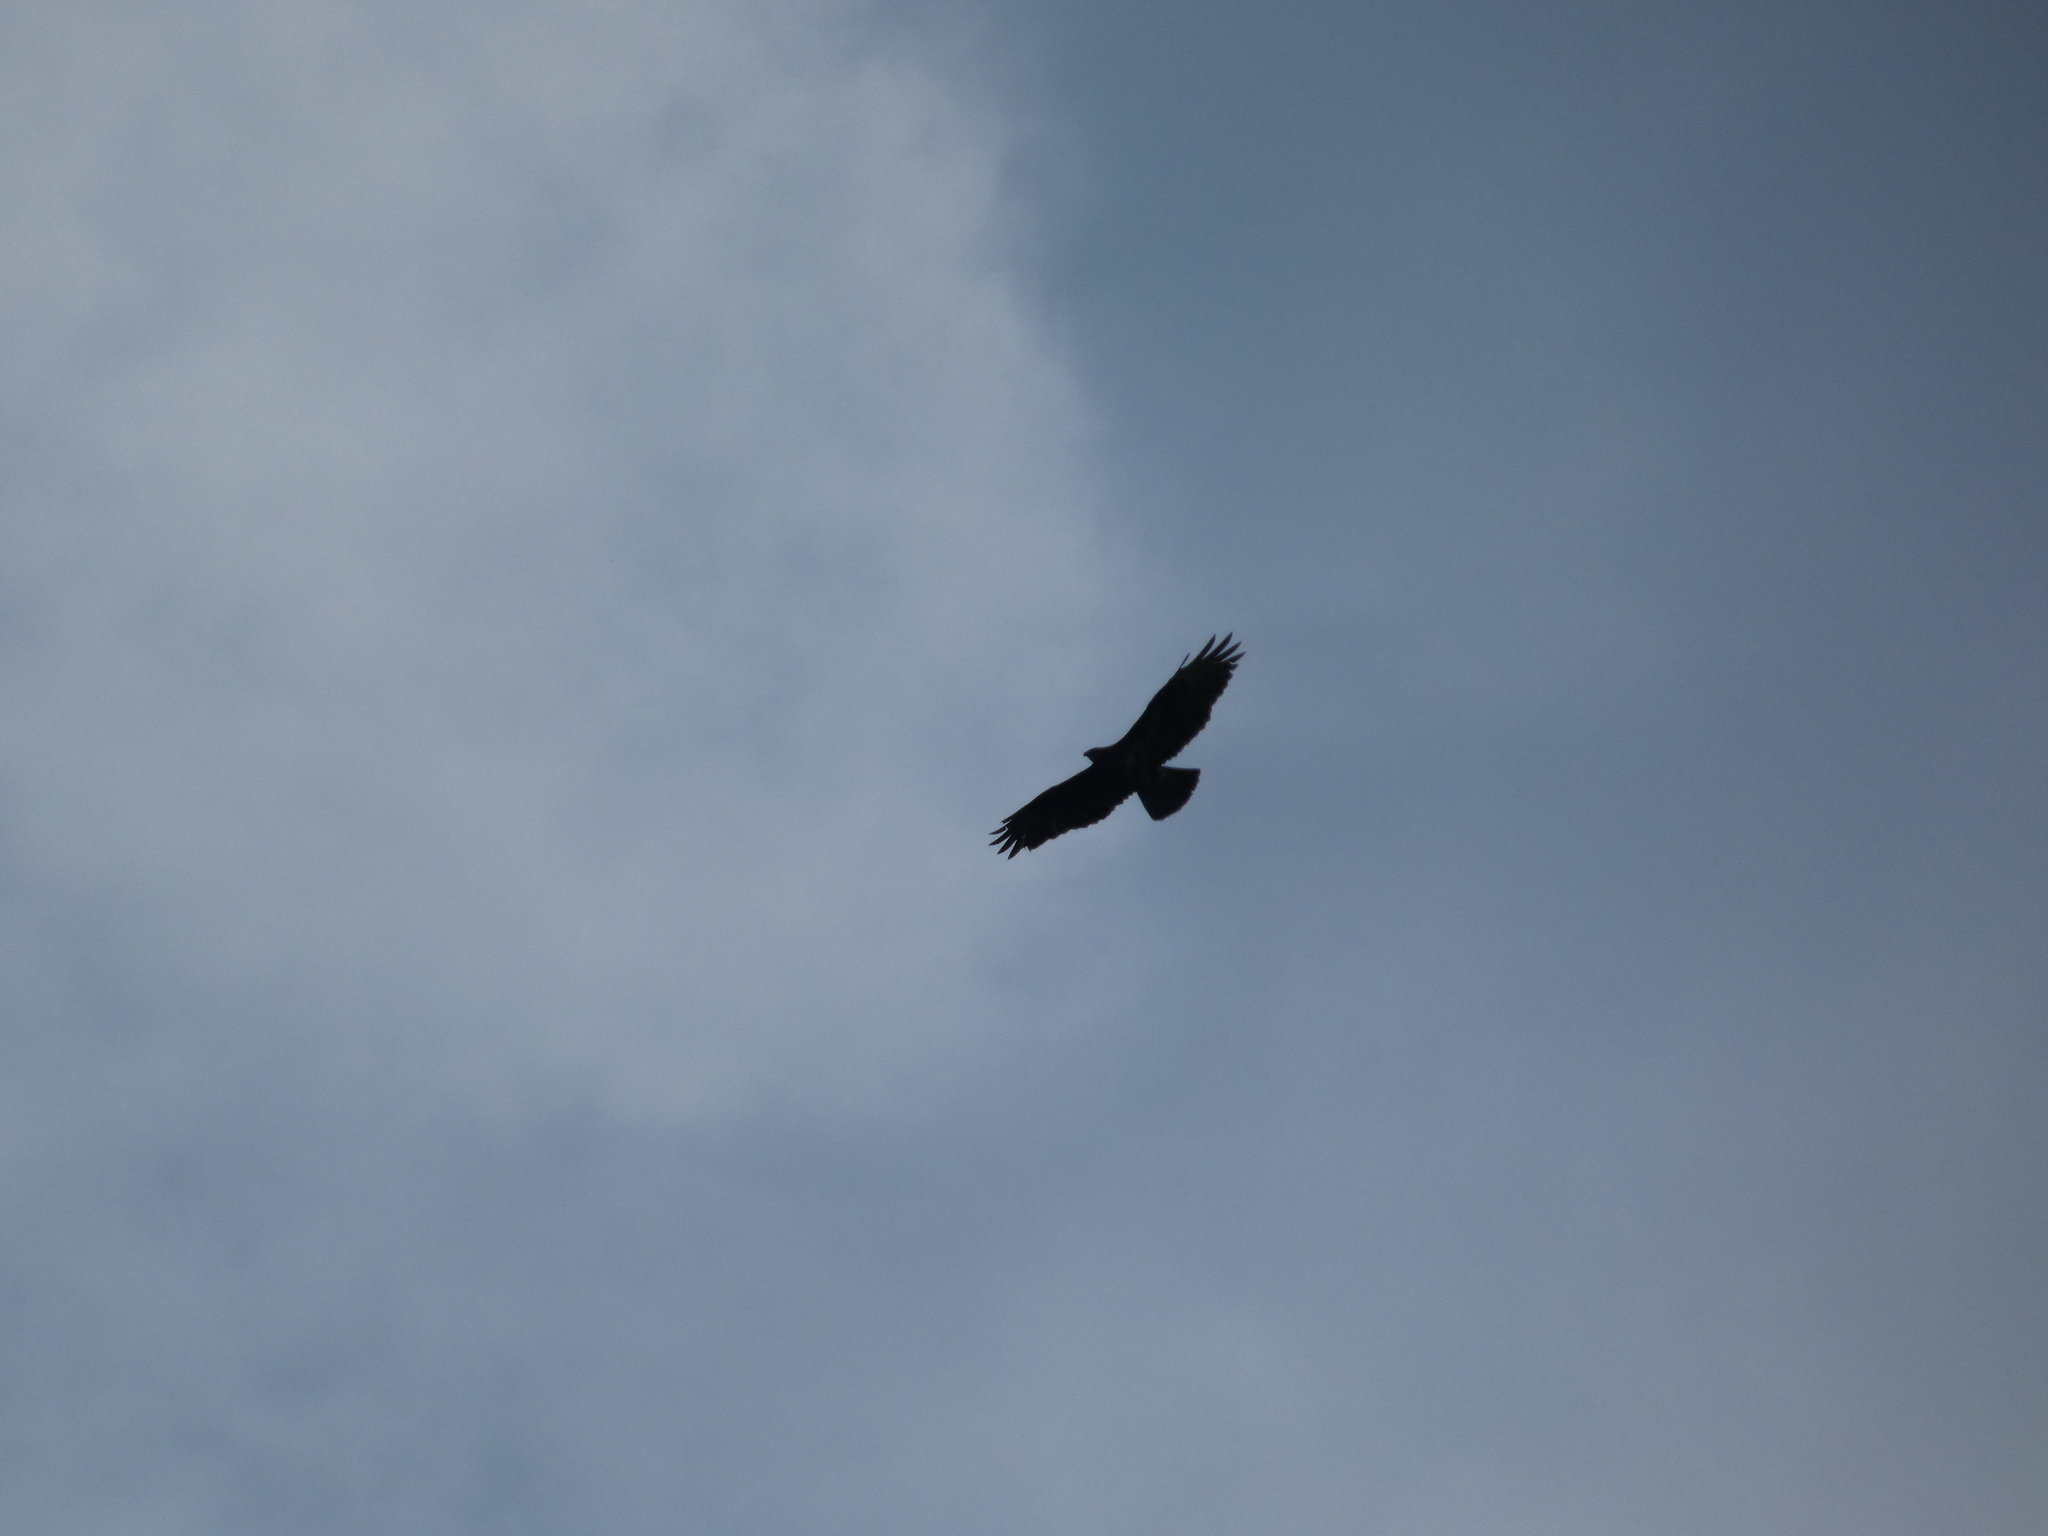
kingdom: Animalia
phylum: Chordata
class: Aves
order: Accipitriformes
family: Accipitridae
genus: Buteo
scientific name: Buteo buteo
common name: Common buzzard
